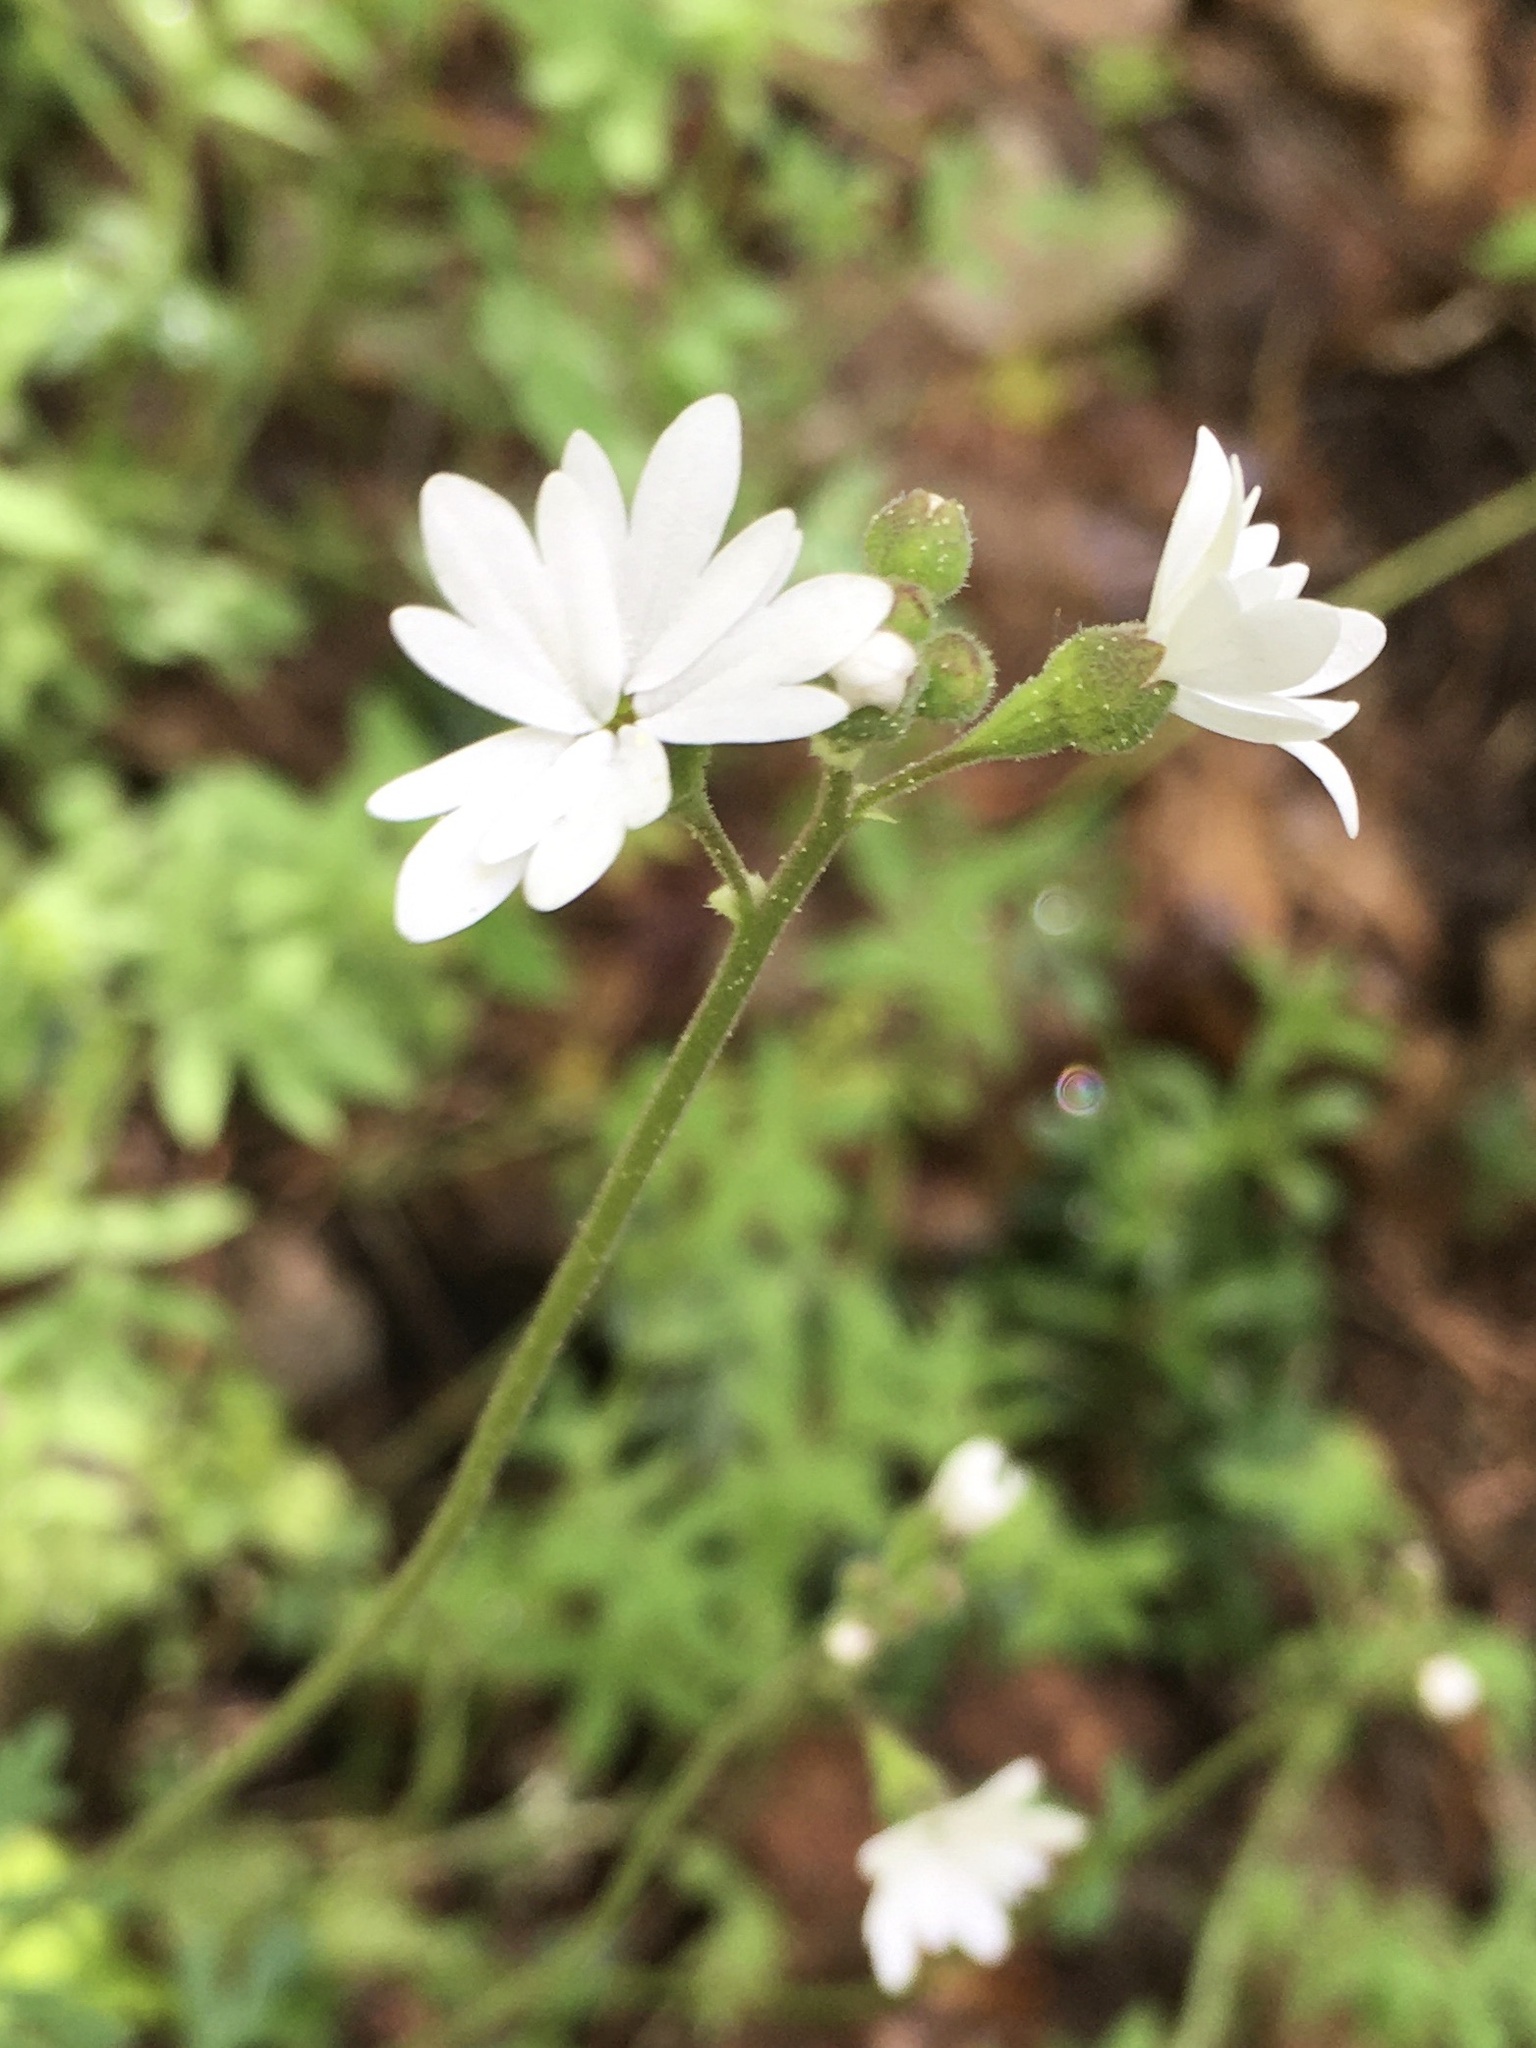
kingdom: Plantae
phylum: Tracheophyta
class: Magnoliopsida
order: Saxifragales
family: Saxifragaceae
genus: Lithophragma
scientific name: Lithophragma parviflorum
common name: Small-flowered fringe-cup
